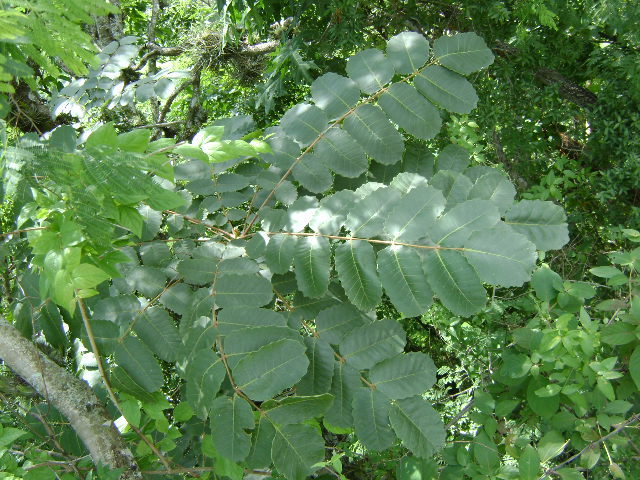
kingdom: Plantae
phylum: Tracheophyta
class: Magnoliopsida
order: Sapindales
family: Anacardiaceae
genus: Comocladia
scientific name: Comocladia macrophylla
